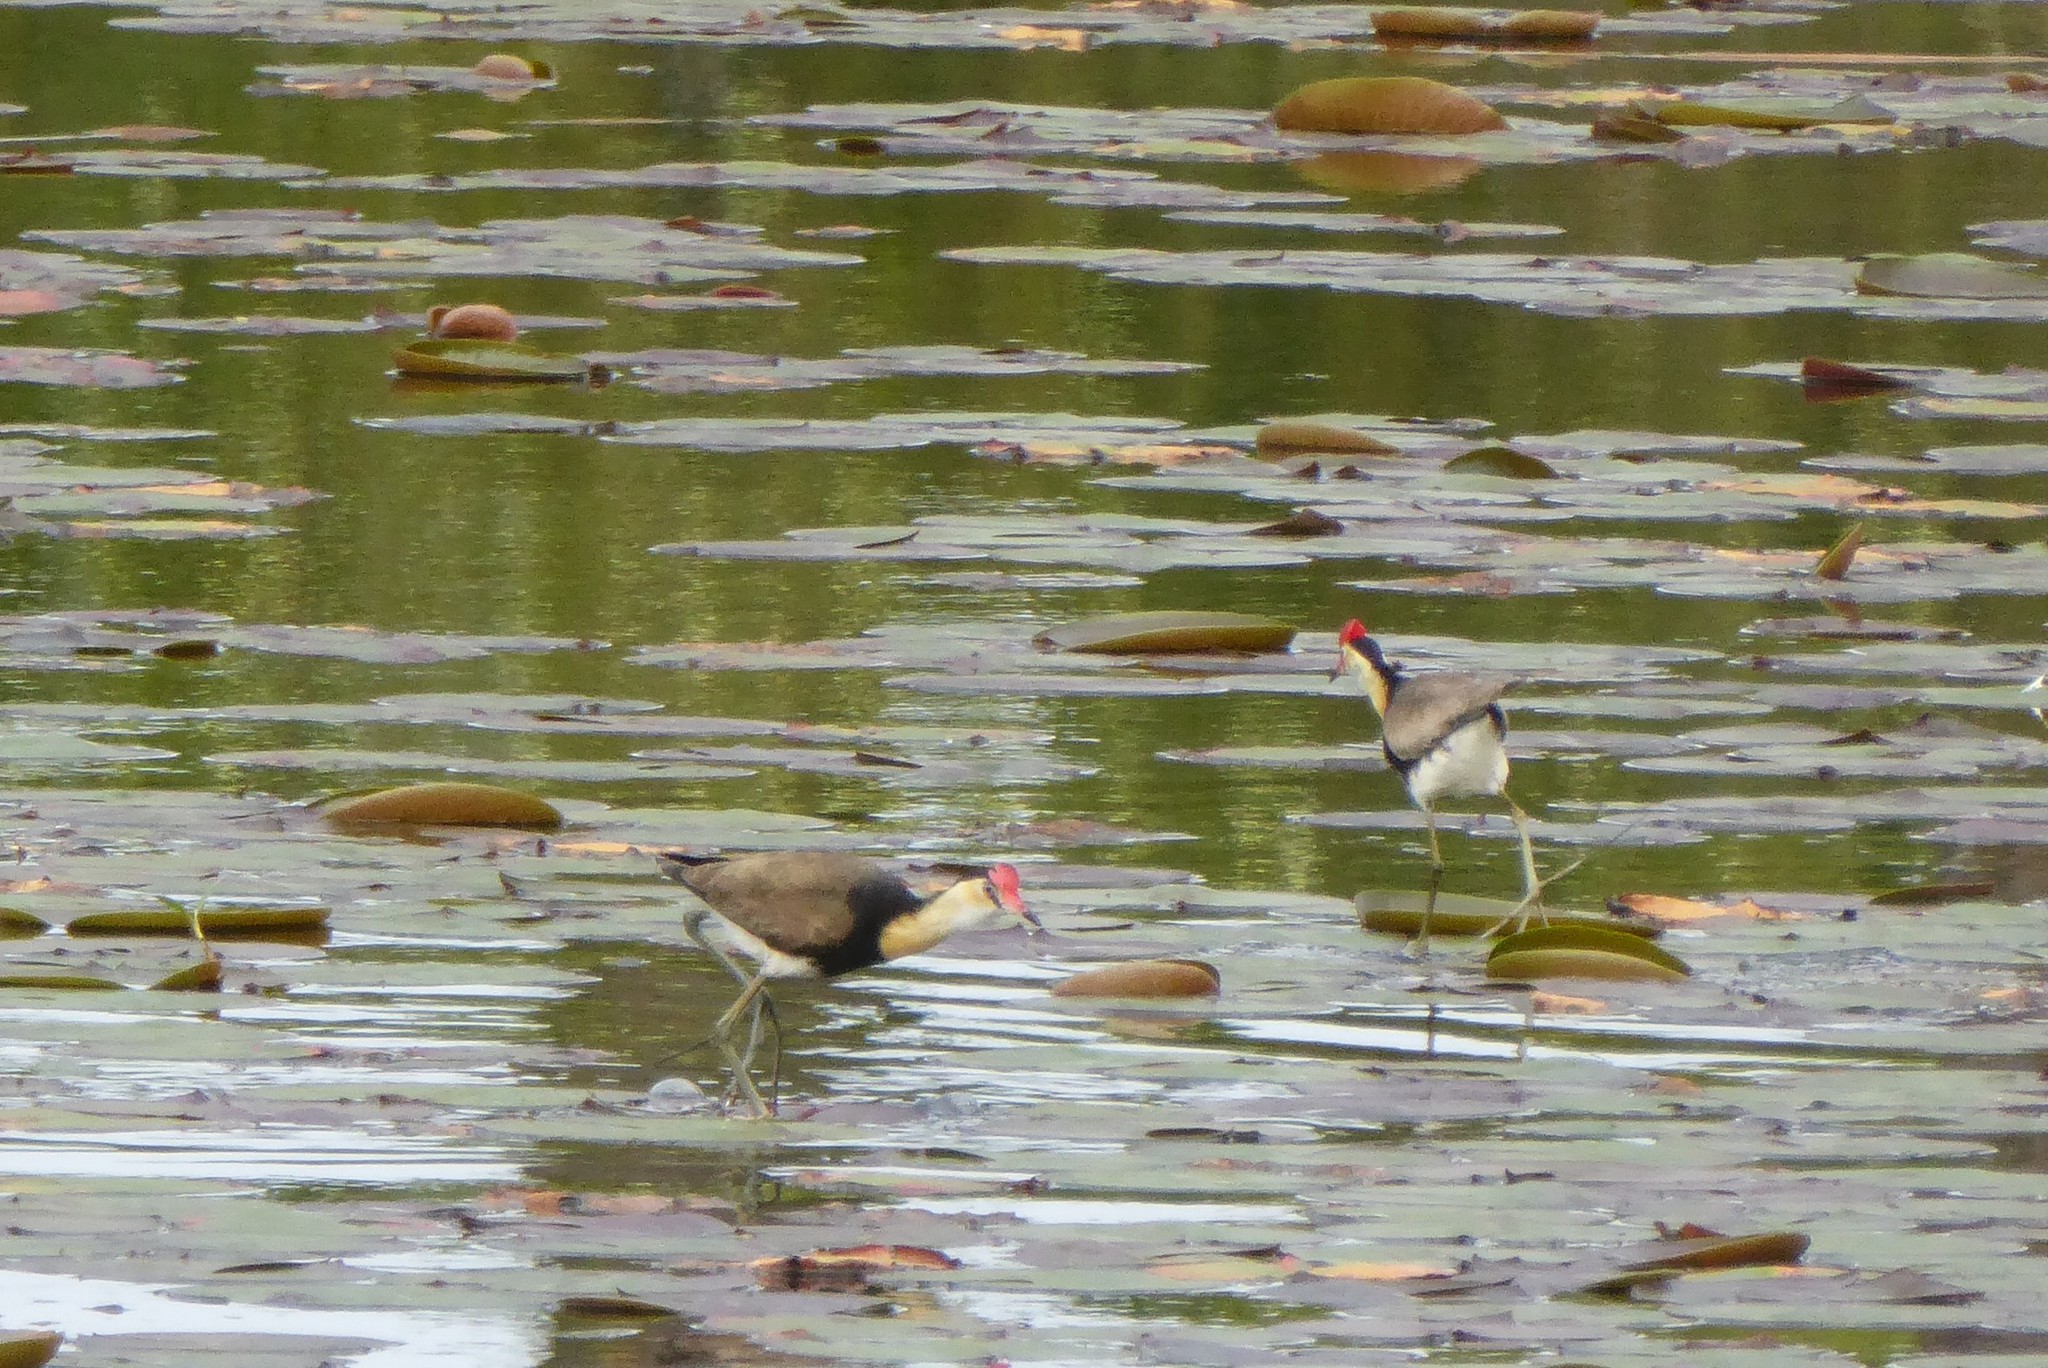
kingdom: Animalia
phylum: Chordata
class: Aves
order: Charadriiformes
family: Jacanidae
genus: Irediparra
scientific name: Irediparra gallinacea
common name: Comb-crested jacana
